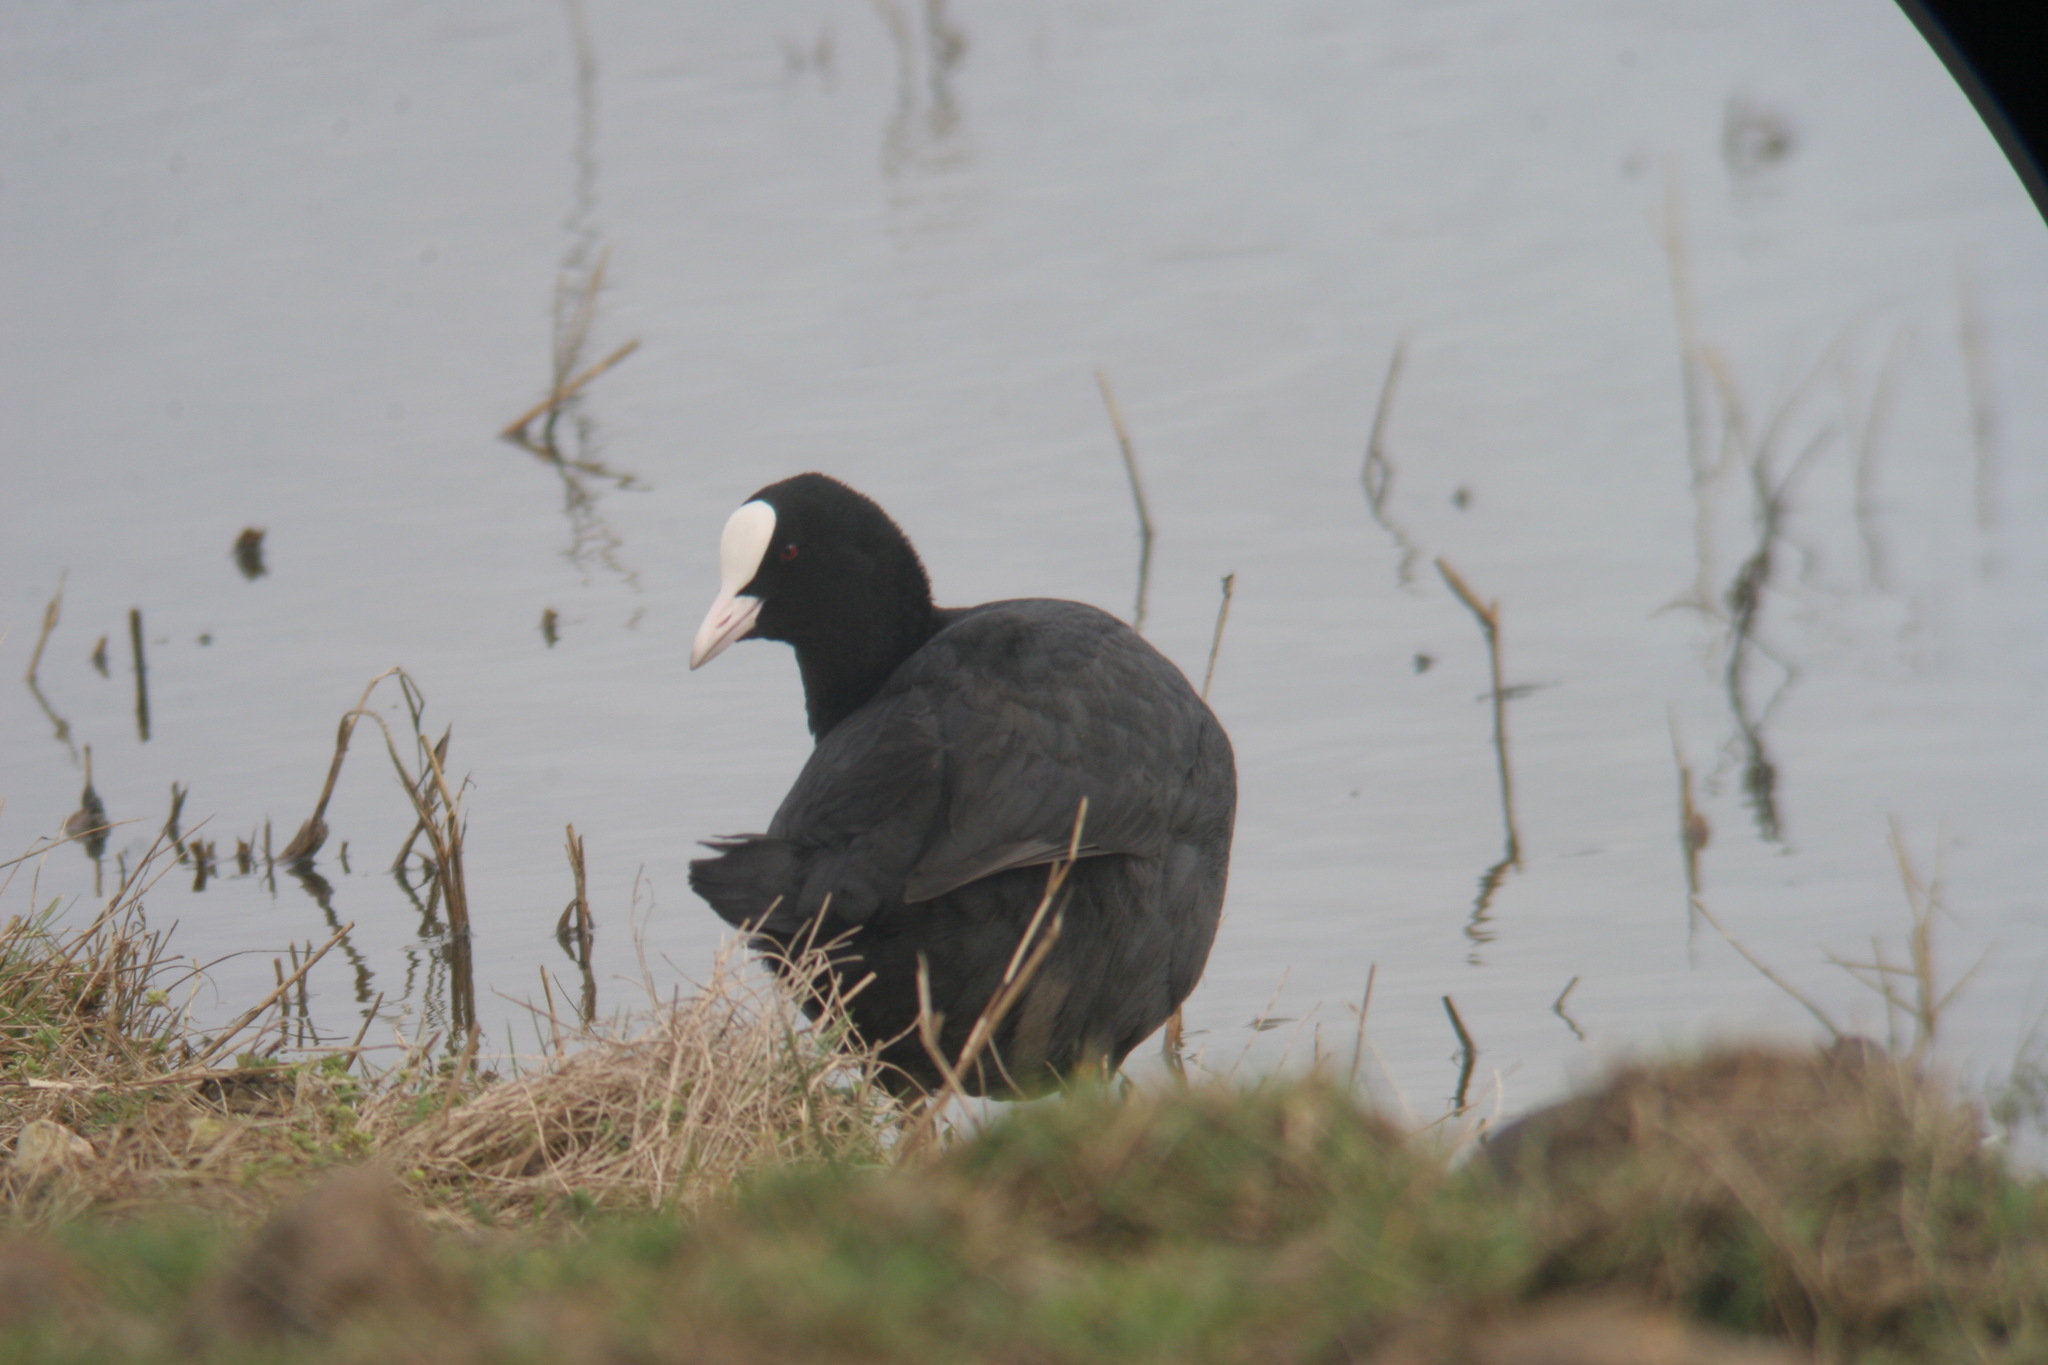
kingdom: Animalia
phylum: Chordata
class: Aves
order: Gruiformes
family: Rallidae
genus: Fulica
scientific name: Fulica atra
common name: Eurasian coot
